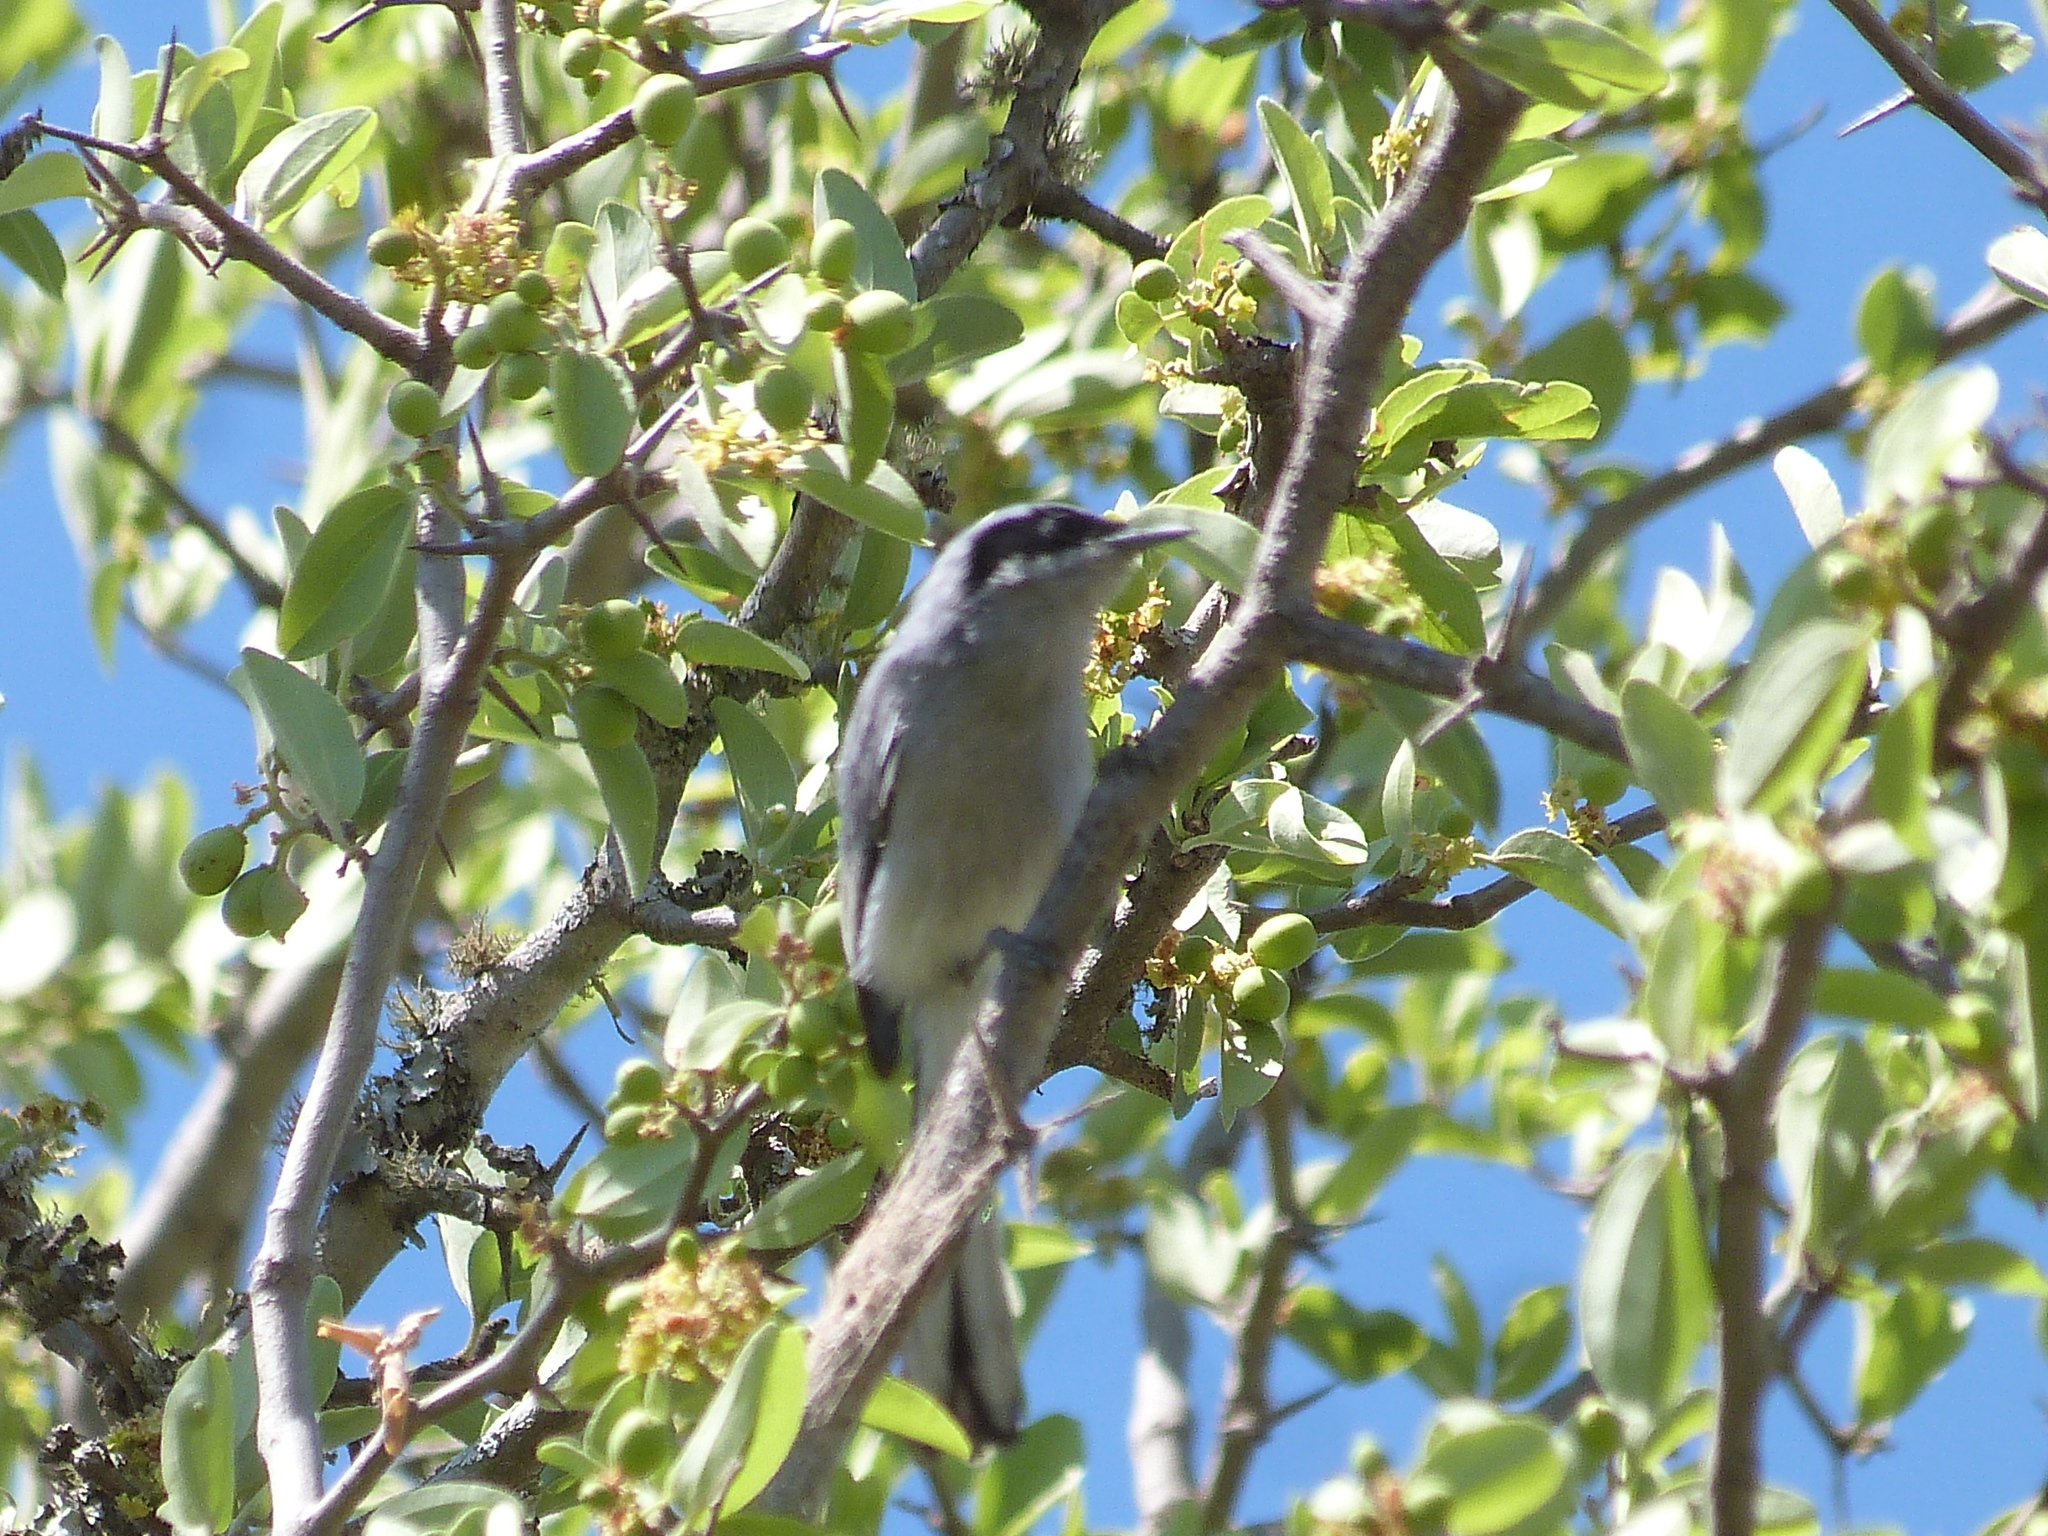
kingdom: Animalia
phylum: Chordata
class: Aves
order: Passeriformes
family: Polioptilidae
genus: Polioptila
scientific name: Polioptila dumicola
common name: Masked gnatcatcher
